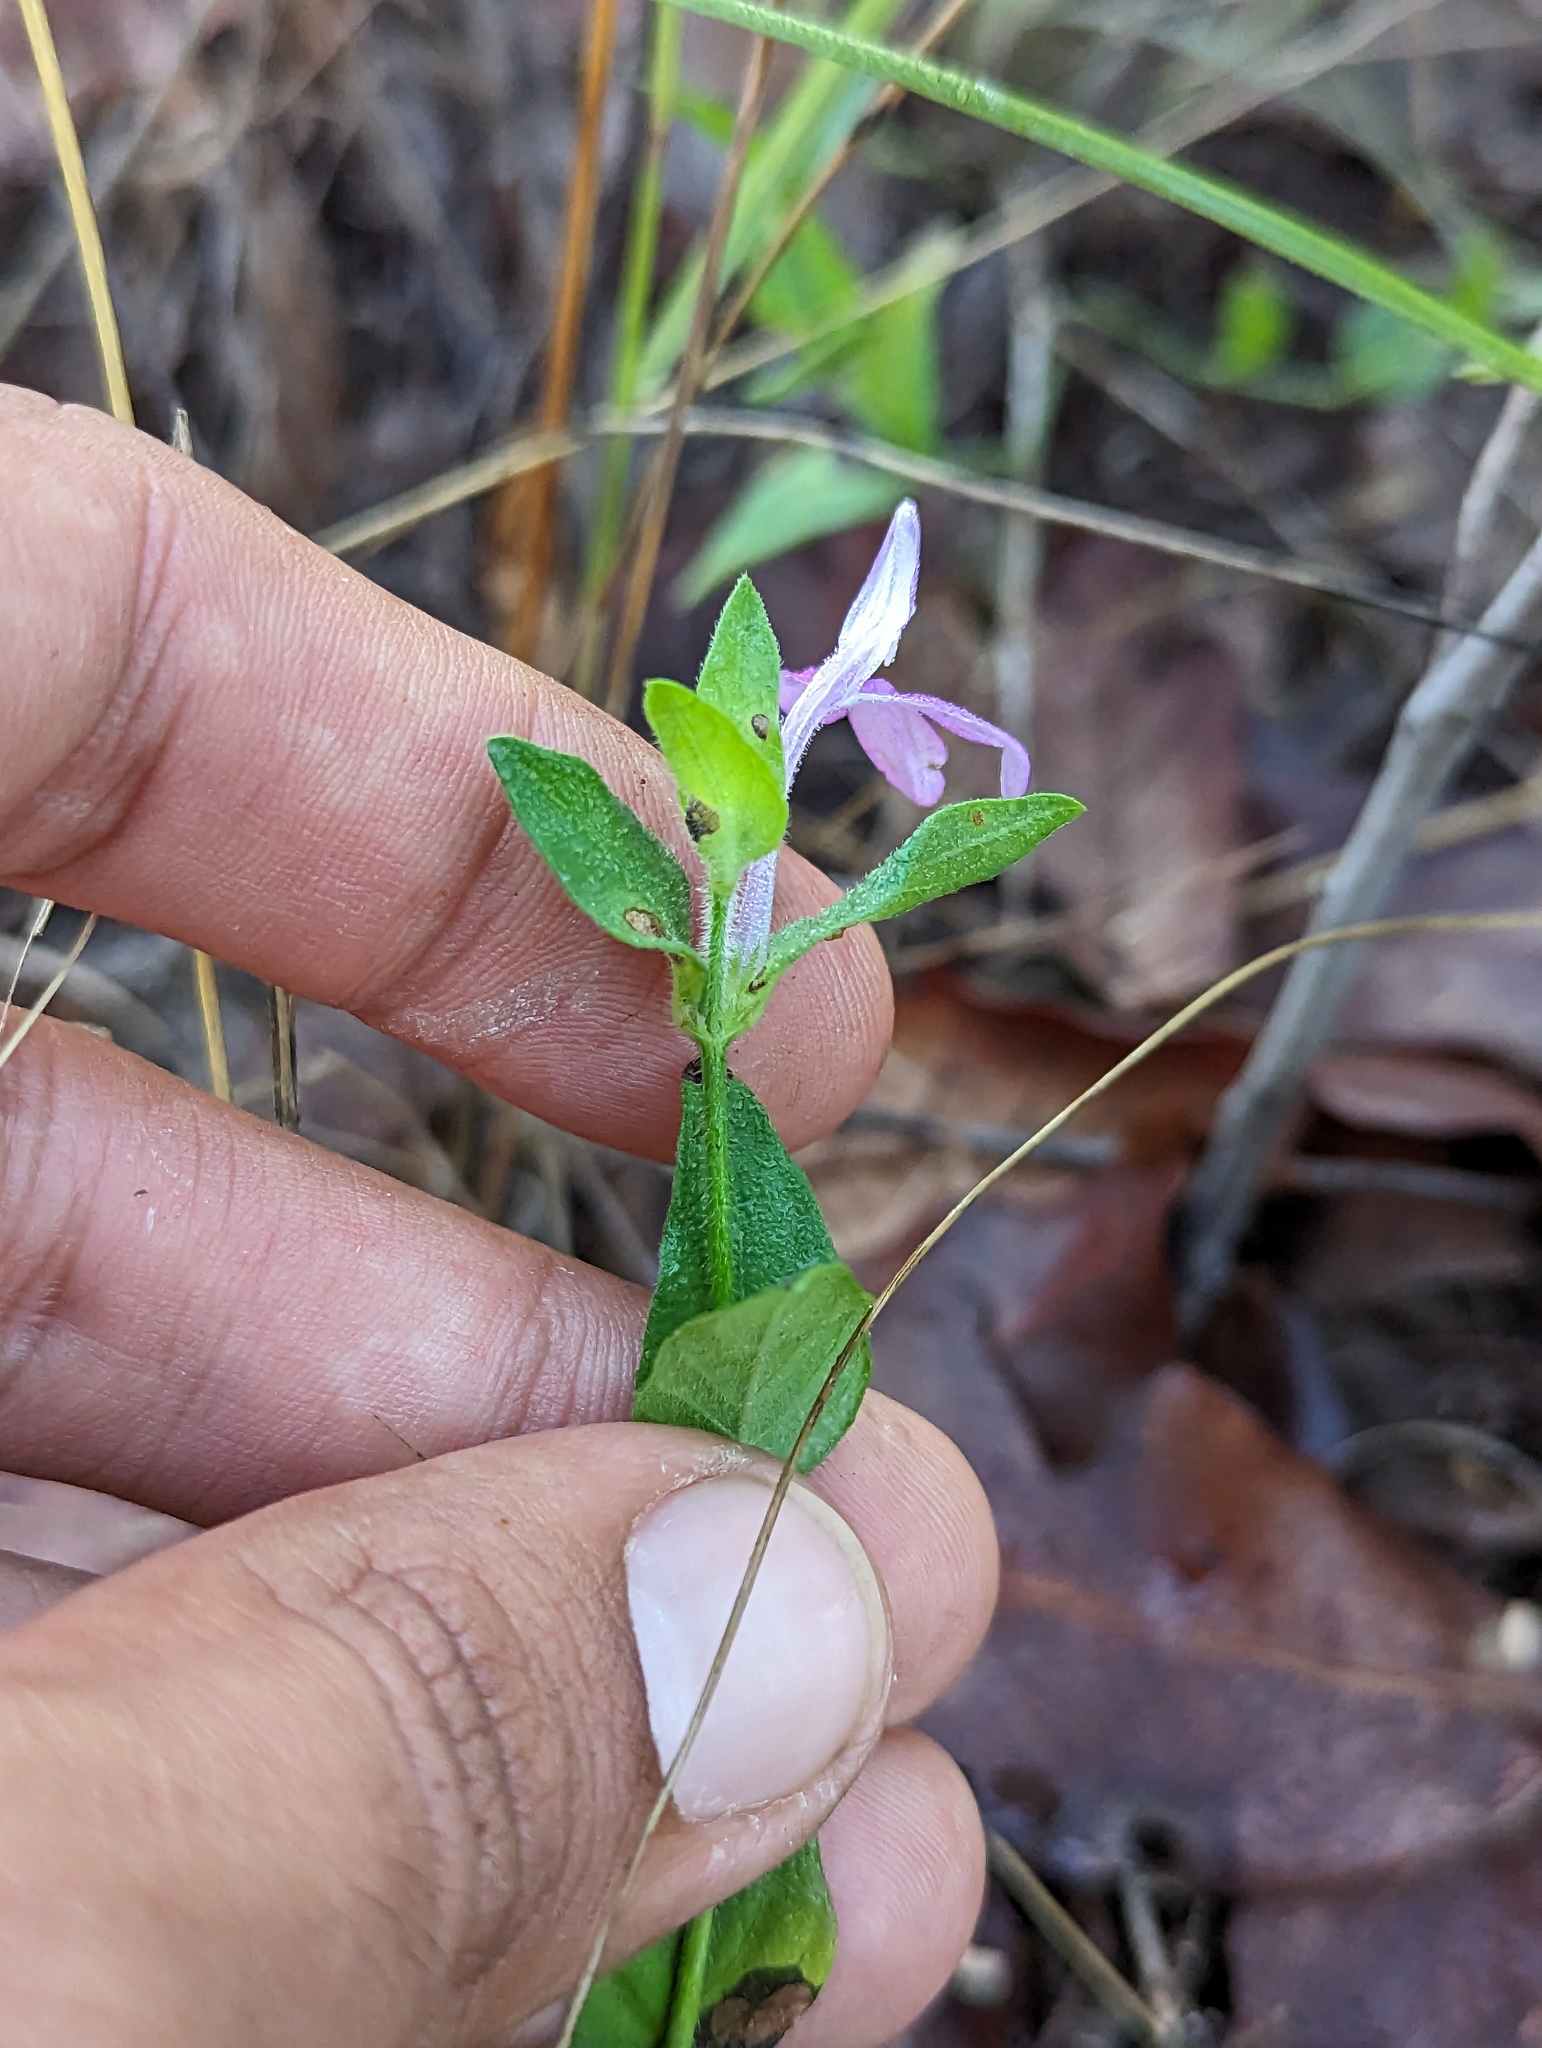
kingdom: Plantae
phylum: Tracheophyta
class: Magnoliopsida
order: Lamiales
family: Acanthaceae
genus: Dianthera
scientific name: Dianthera incerta
